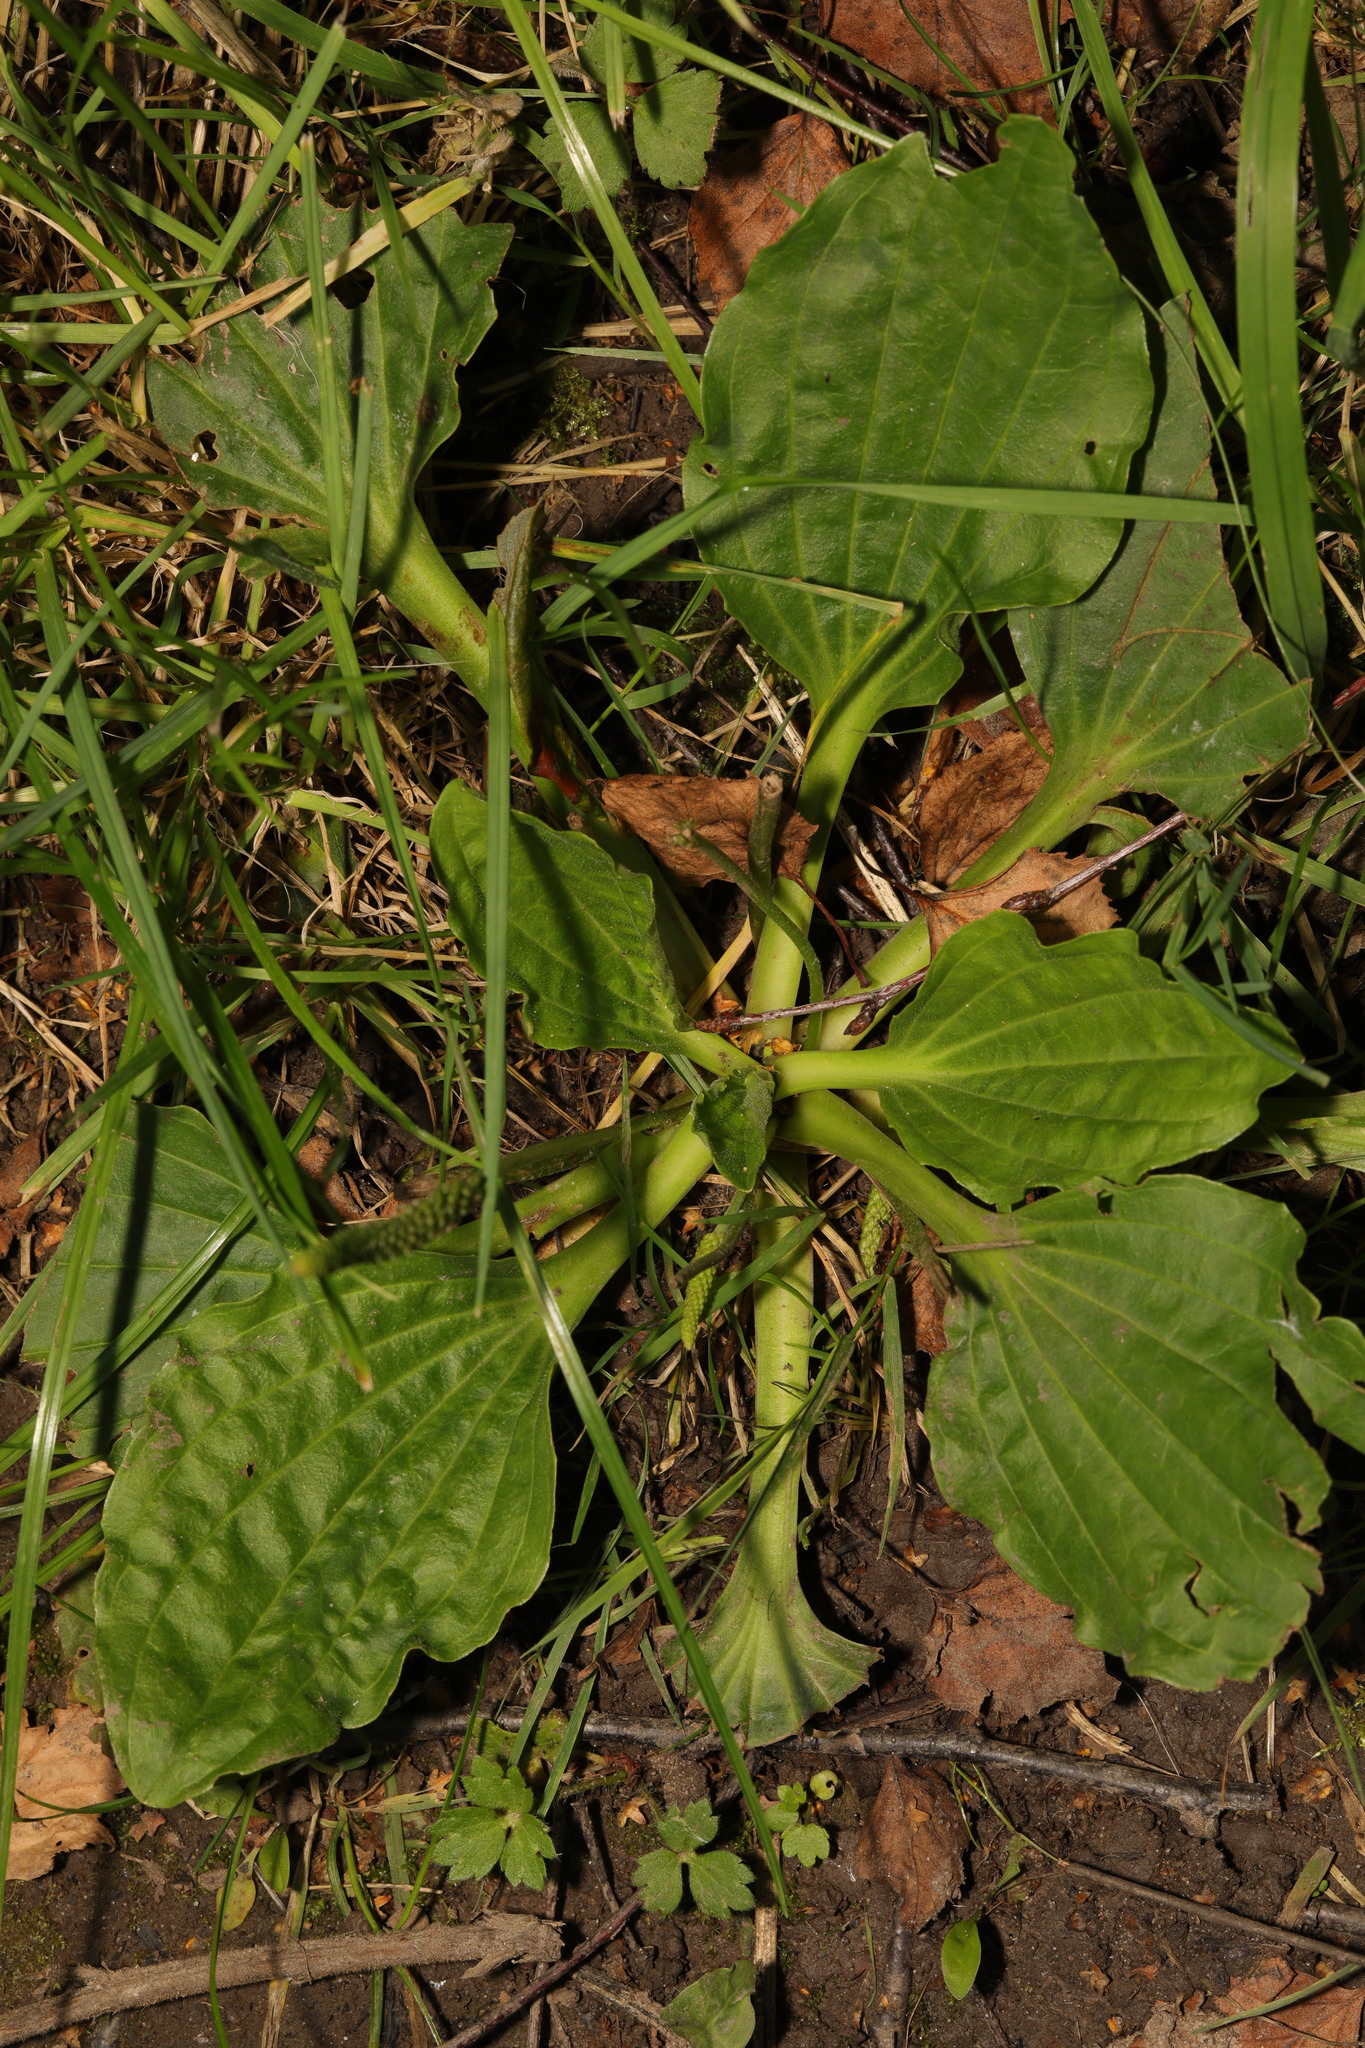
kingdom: Plantae
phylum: Tracheophyta
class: Magnoliopsida
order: Lamiales
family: Plantaginaceae
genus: Plantago
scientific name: Plantago major
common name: Common plantain
